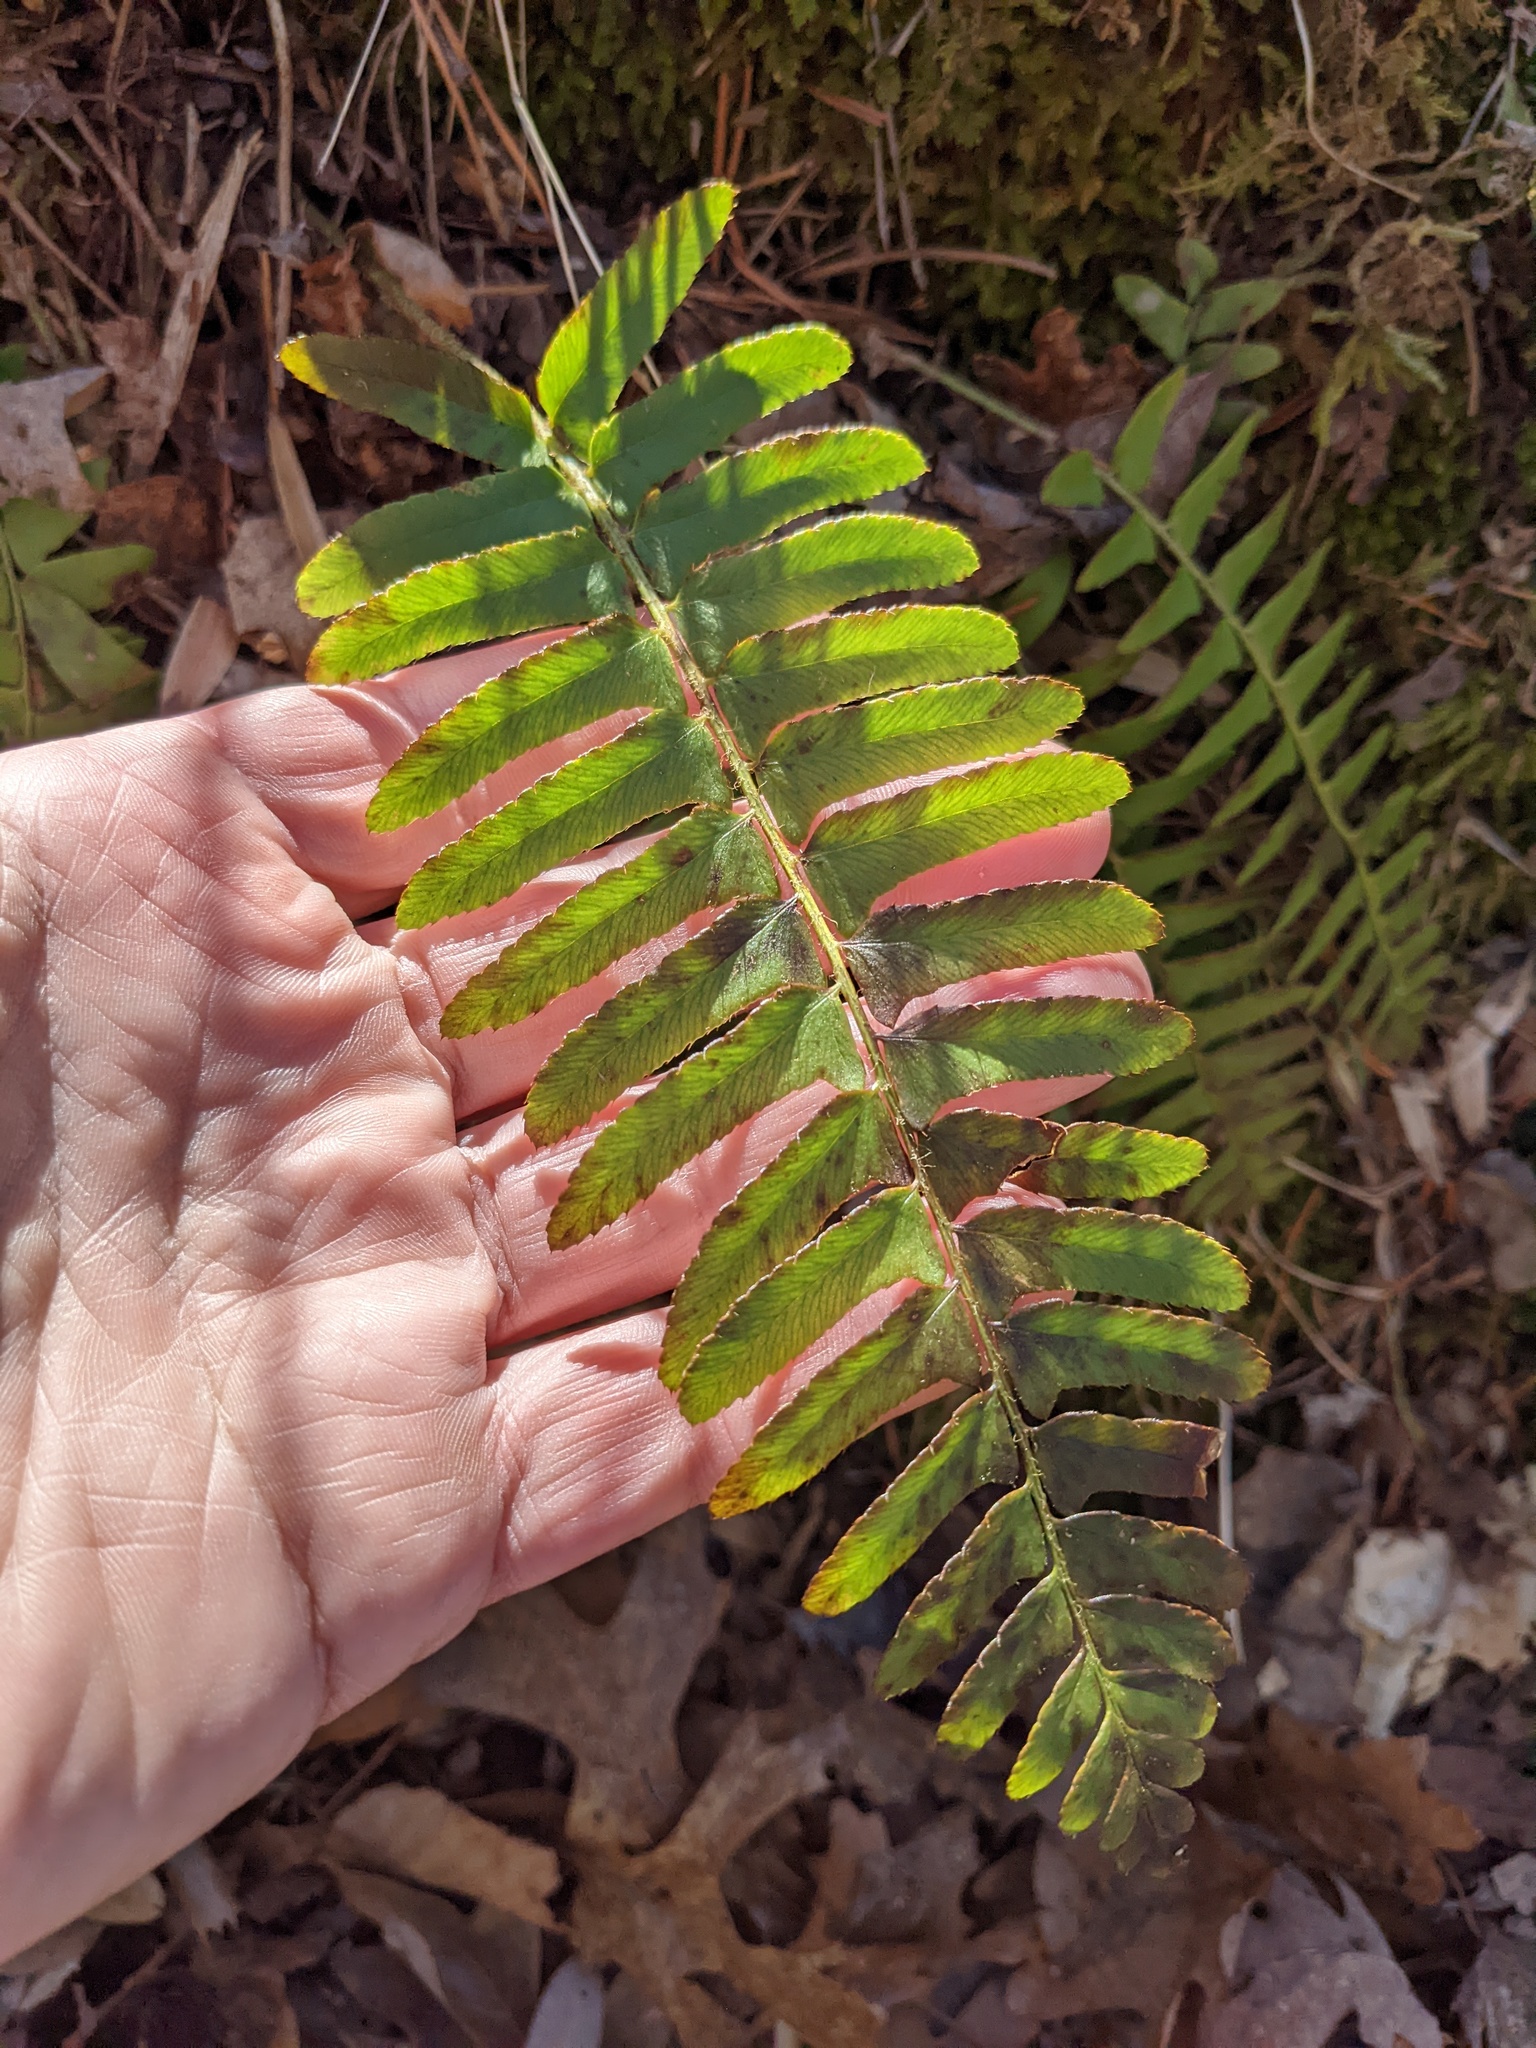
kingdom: Plantae
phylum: Tracheophyta
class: Polypodiopsida
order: Polypodiales
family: Dryopteridaceae
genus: Polystichum
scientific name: Polystichum acrostichoides
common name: Christmas fern
